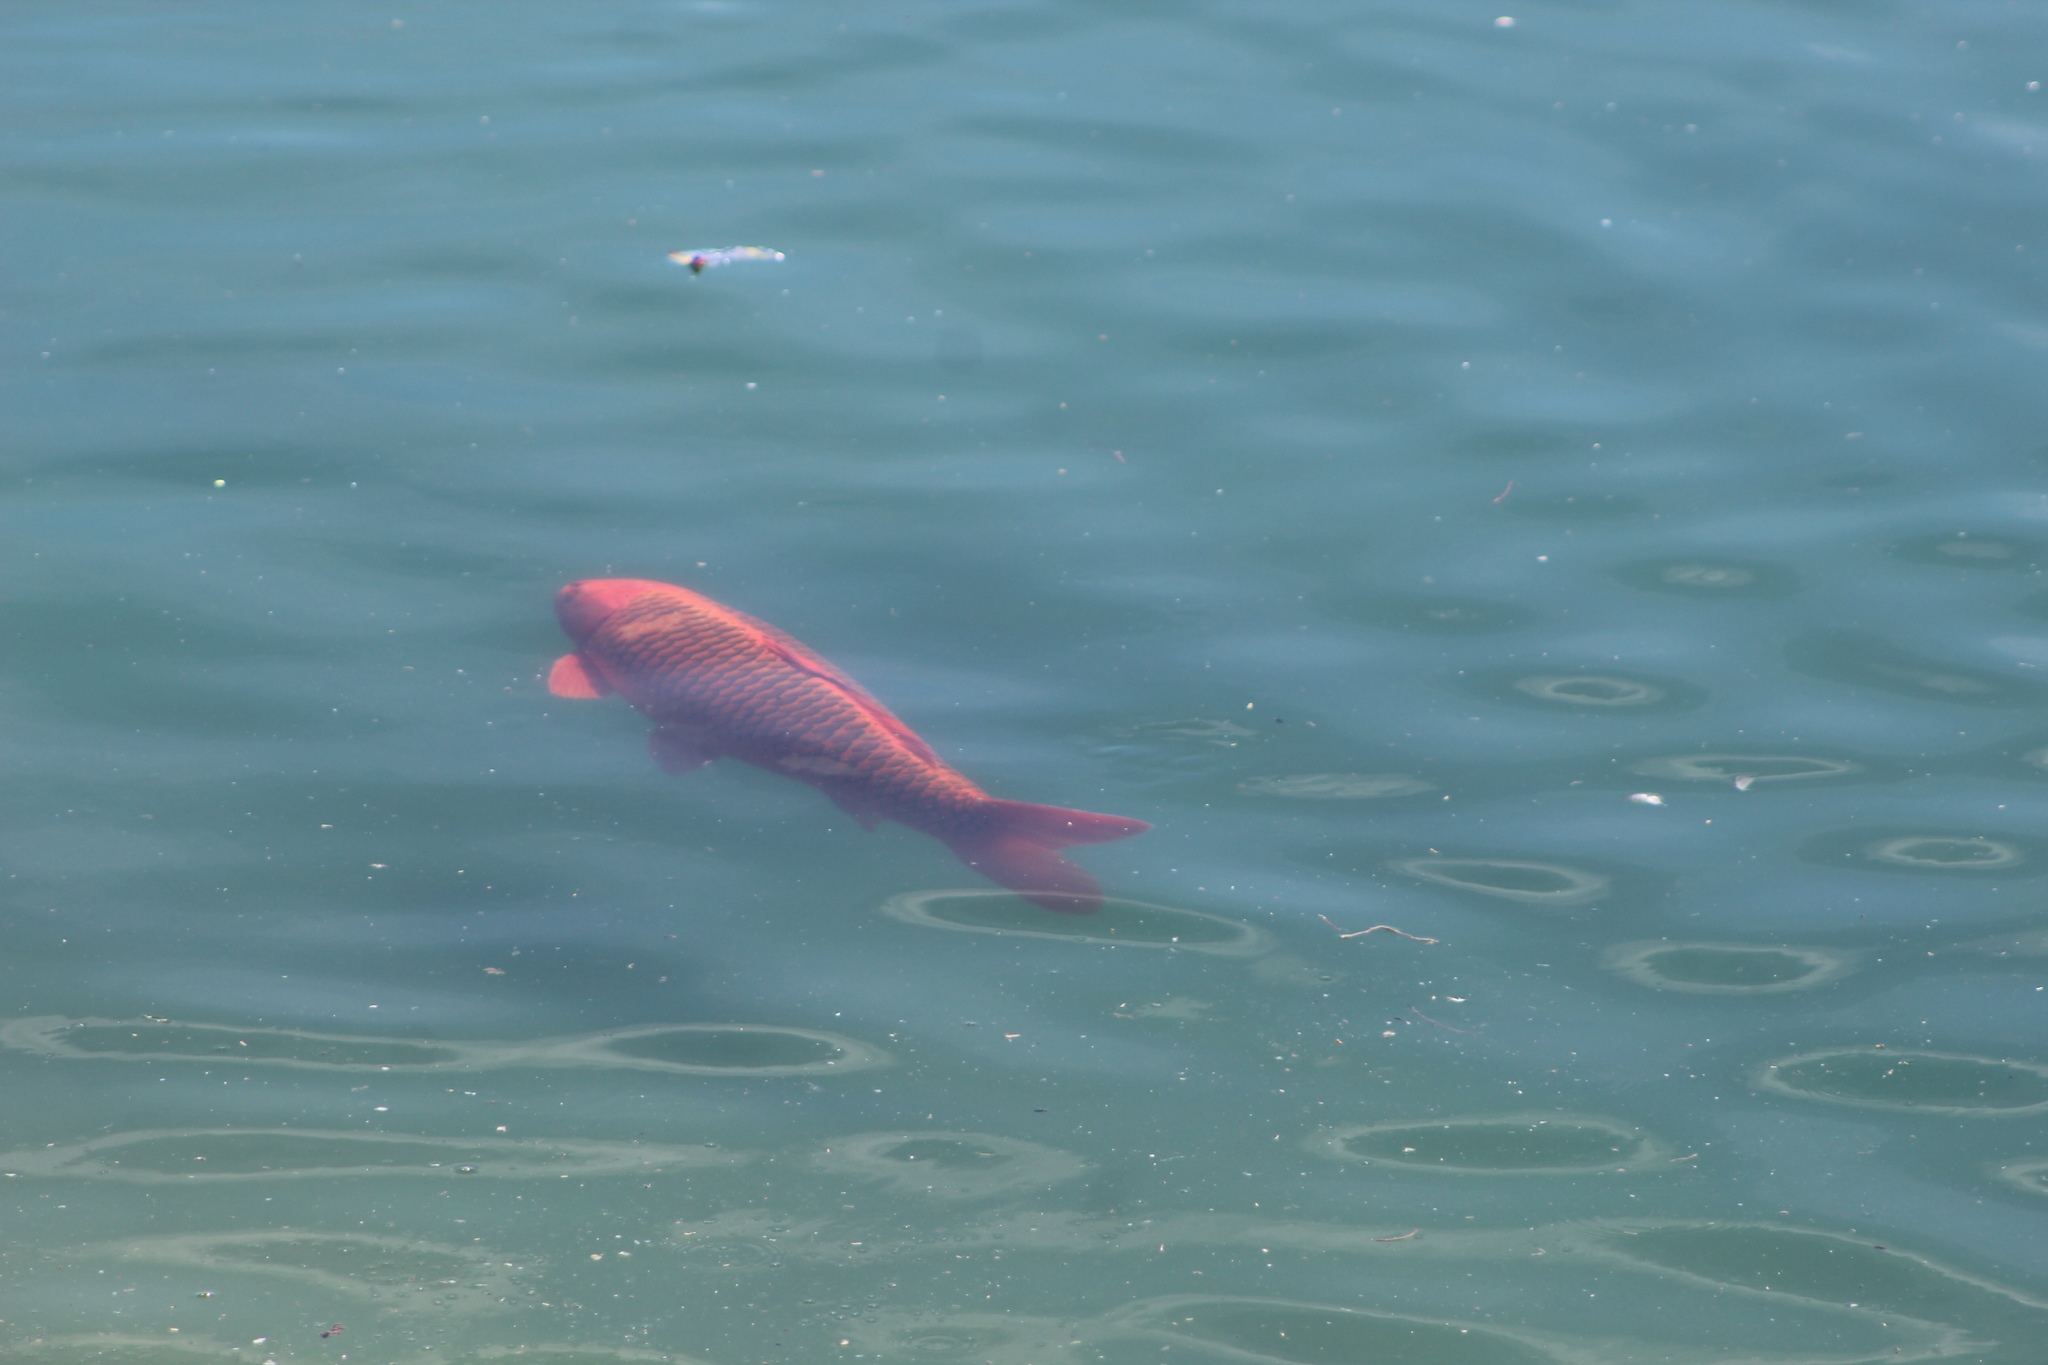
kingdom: Animalia
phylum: Chordata
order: Cypriniformes
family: Cyprinidae
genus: Cyprinus
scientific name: Cyprinus rubrofuscus
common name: Koi
